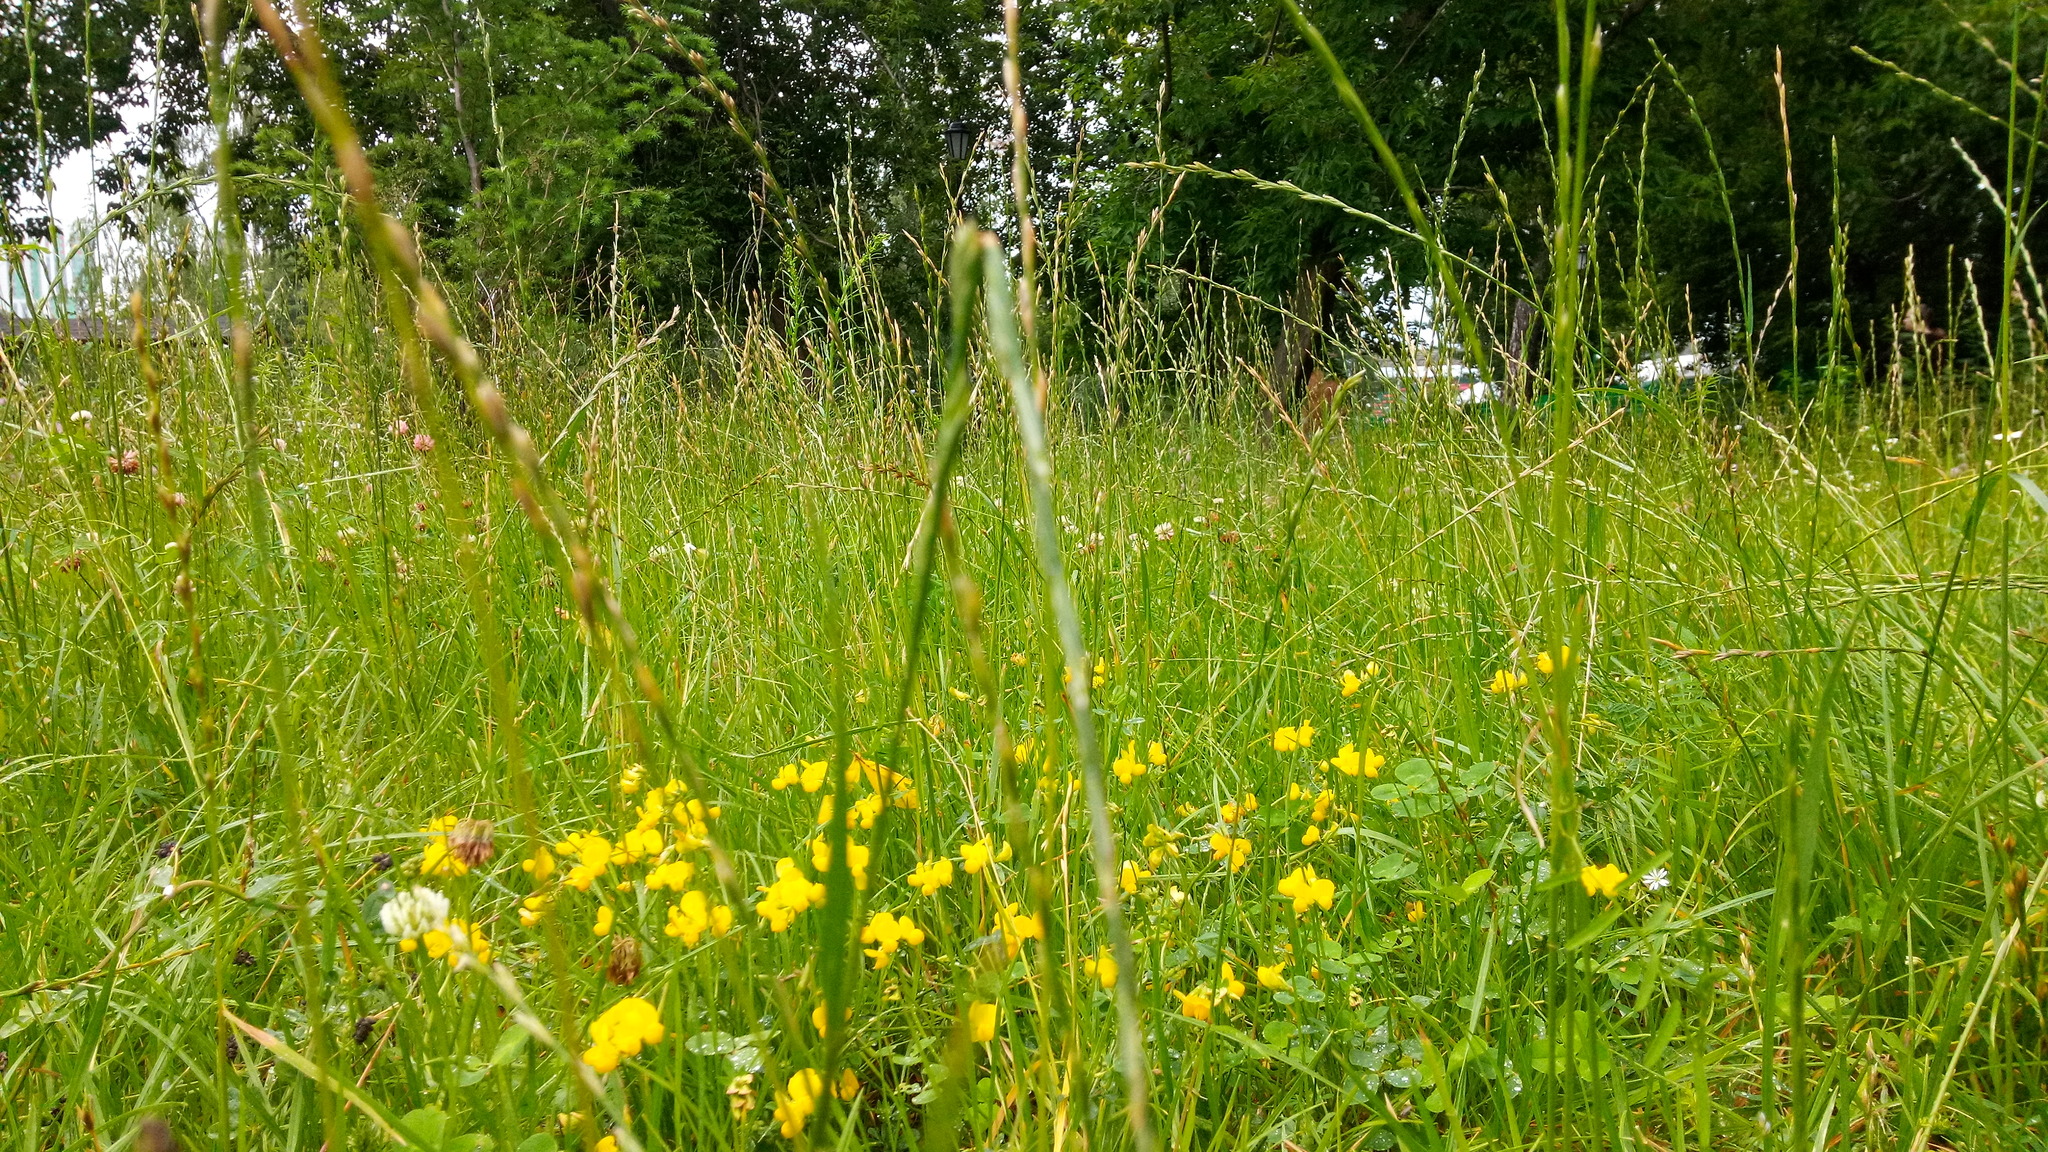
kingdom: Plantae
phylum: Tracheophyta
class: Magnoliopsida
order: Fabales
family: Fabaceae
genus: Lotus
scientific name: Lotus corniculatus
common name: Common bird's-foot-trefoil
